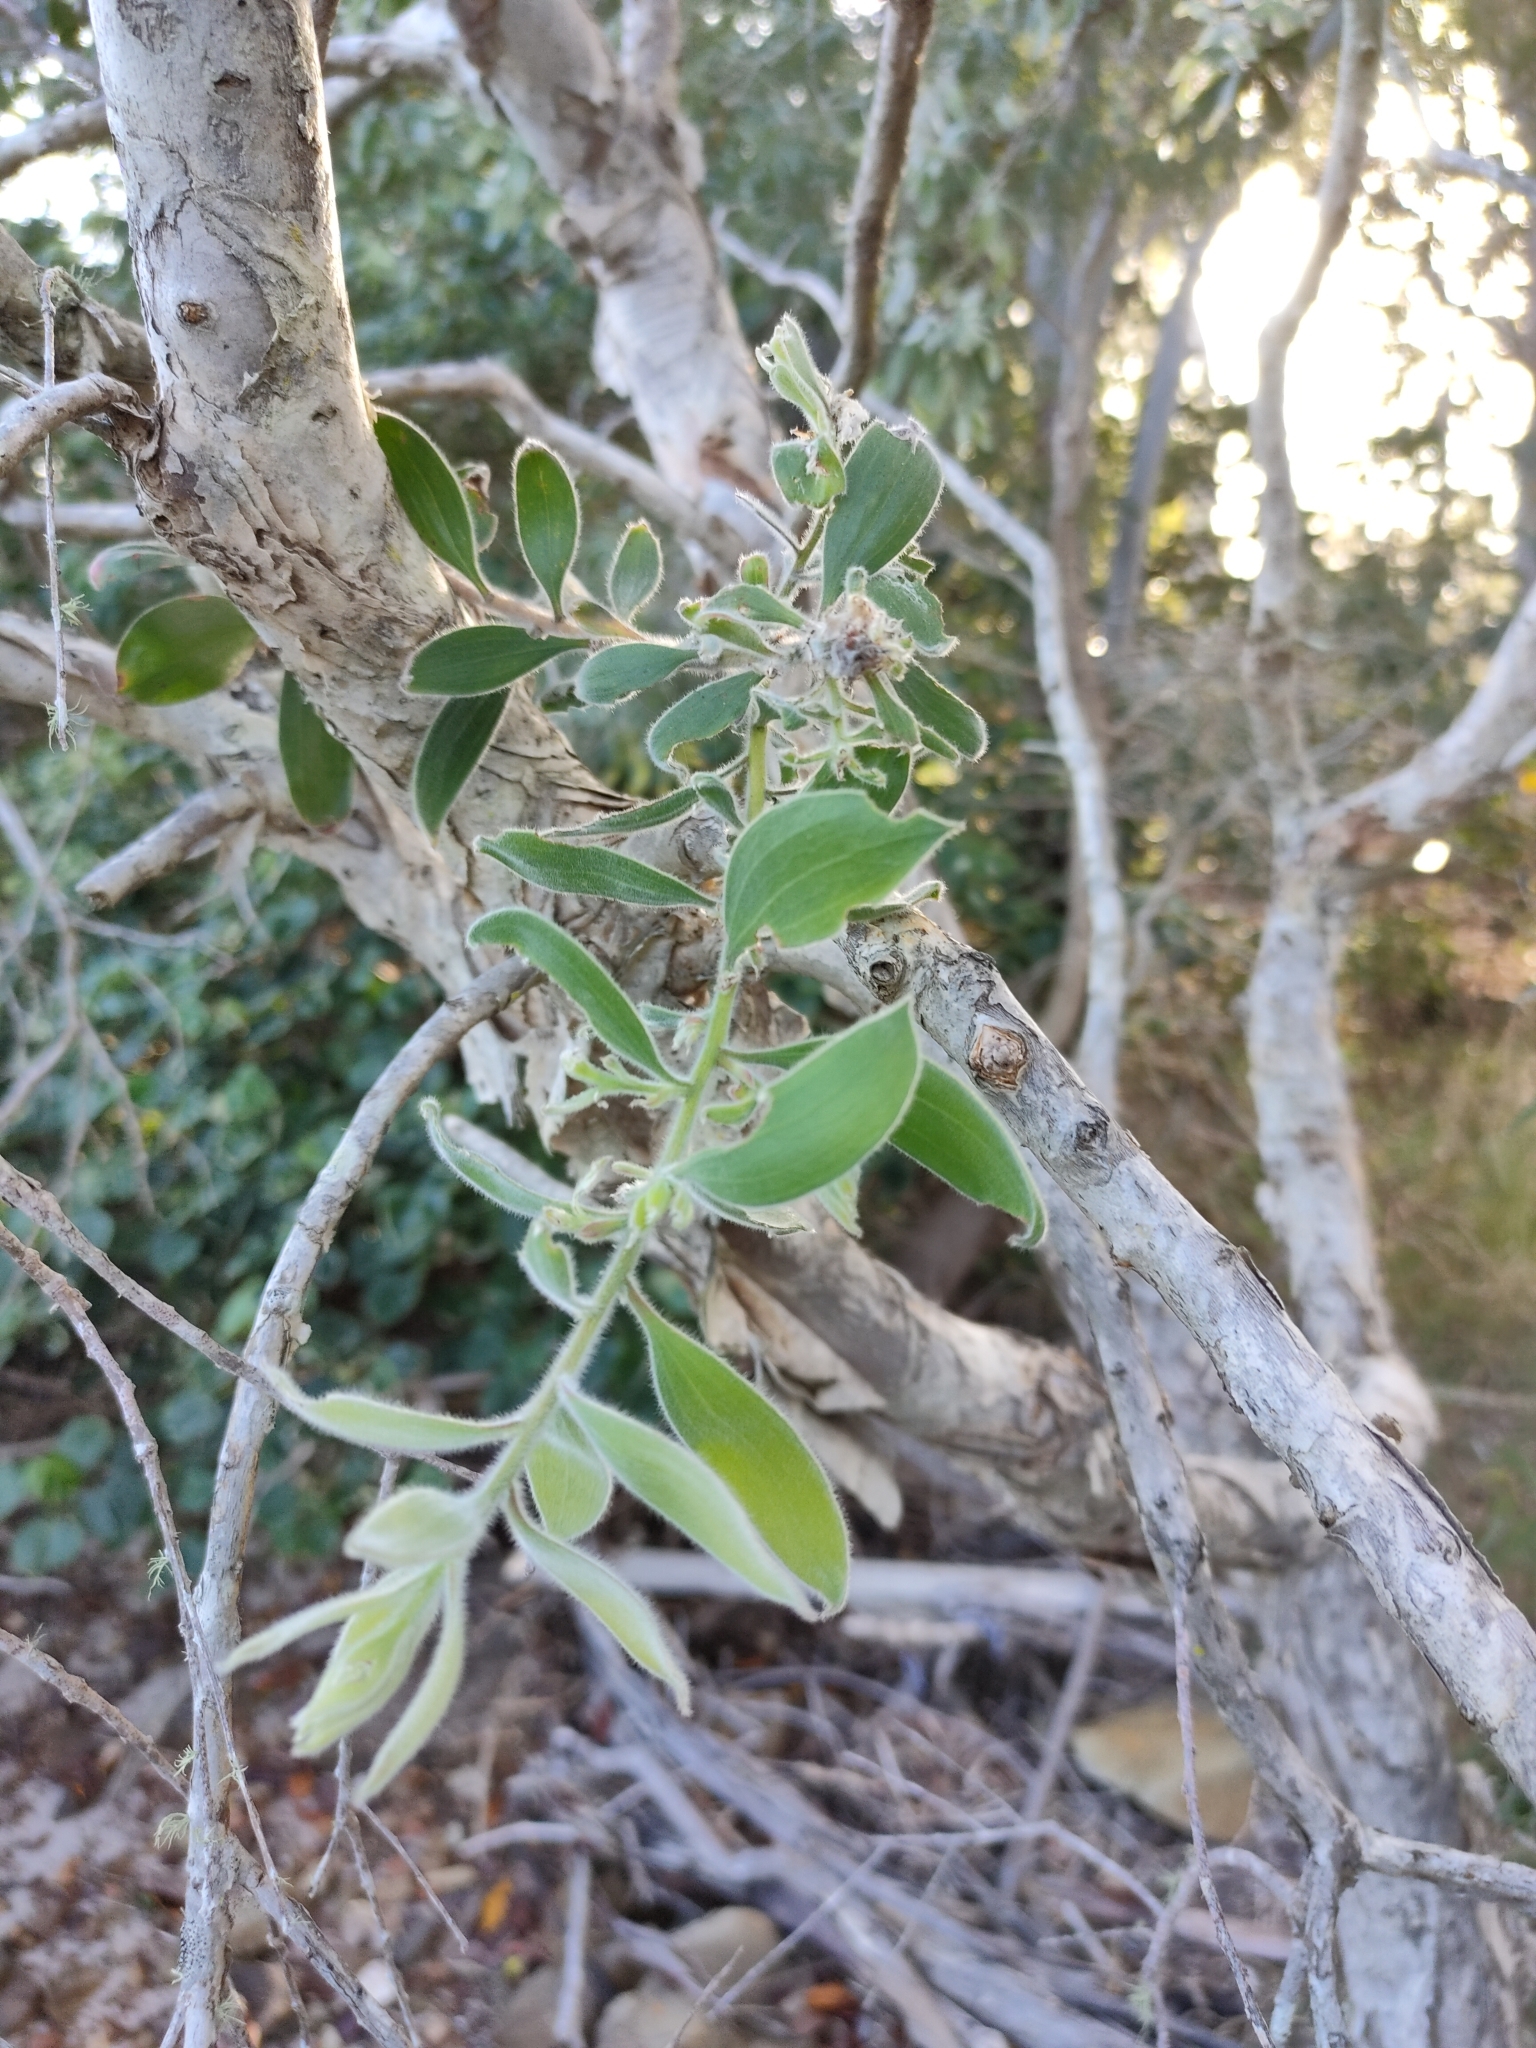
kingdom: Plantae
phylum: Tracheophyta
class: Magnoliopsida
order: Myrtales
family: Myrtaceae
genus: Melaleuca
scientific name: Melaleuca dealbata
